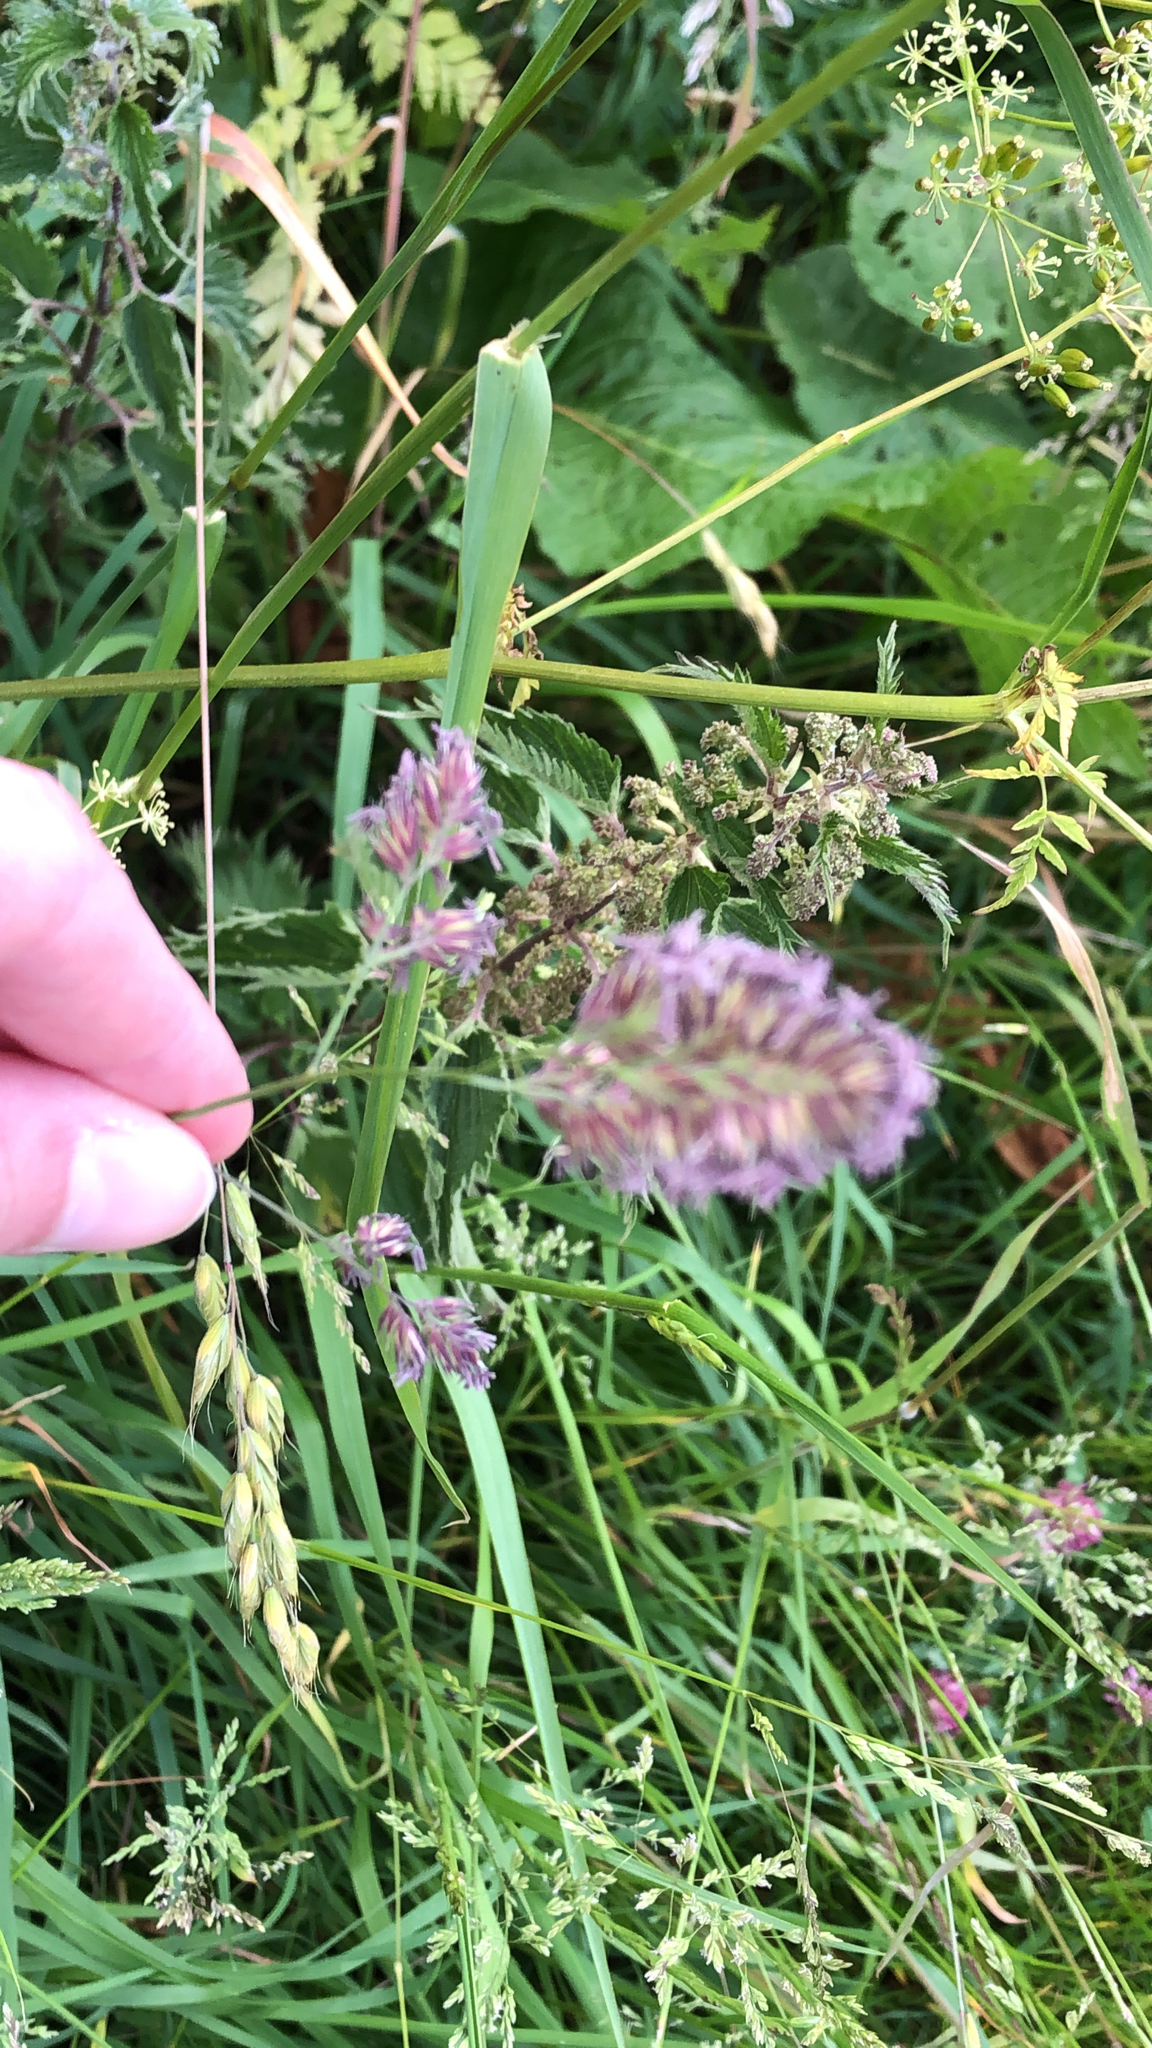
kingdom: Plantae
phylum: Tracheophyta
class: Liliopsida
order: Poales
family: Poaceae
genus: Dactylis
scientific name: Dactylis glomerata
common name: Orchardgrass
